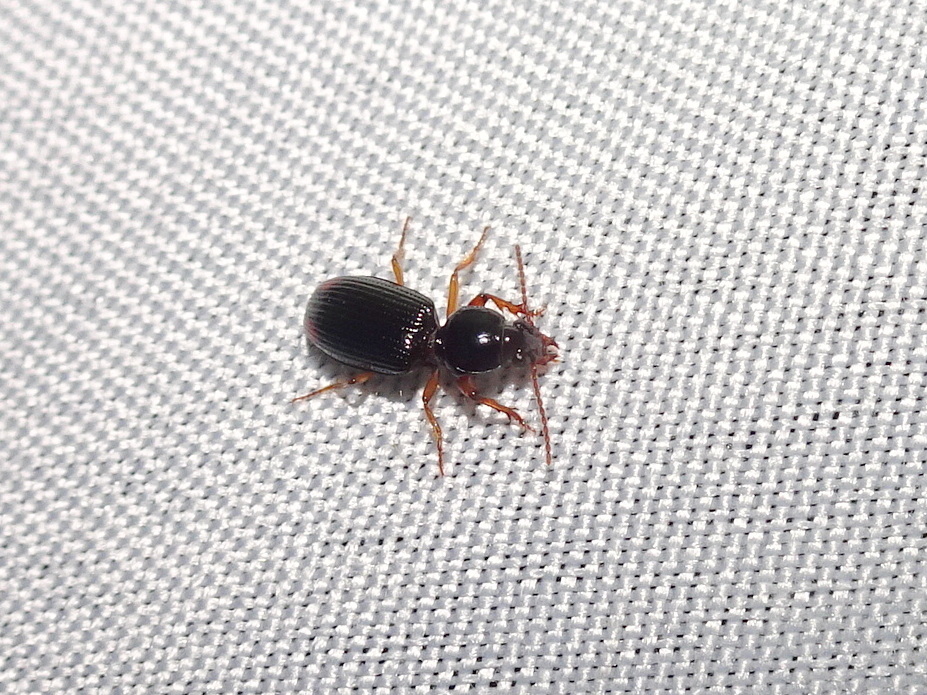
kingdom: Animalia
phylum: Arthropoda
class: Insecta
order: Coleoptera
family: Carabidae
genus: Aspidoglossa
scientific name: Aspidoglossa subangulata
